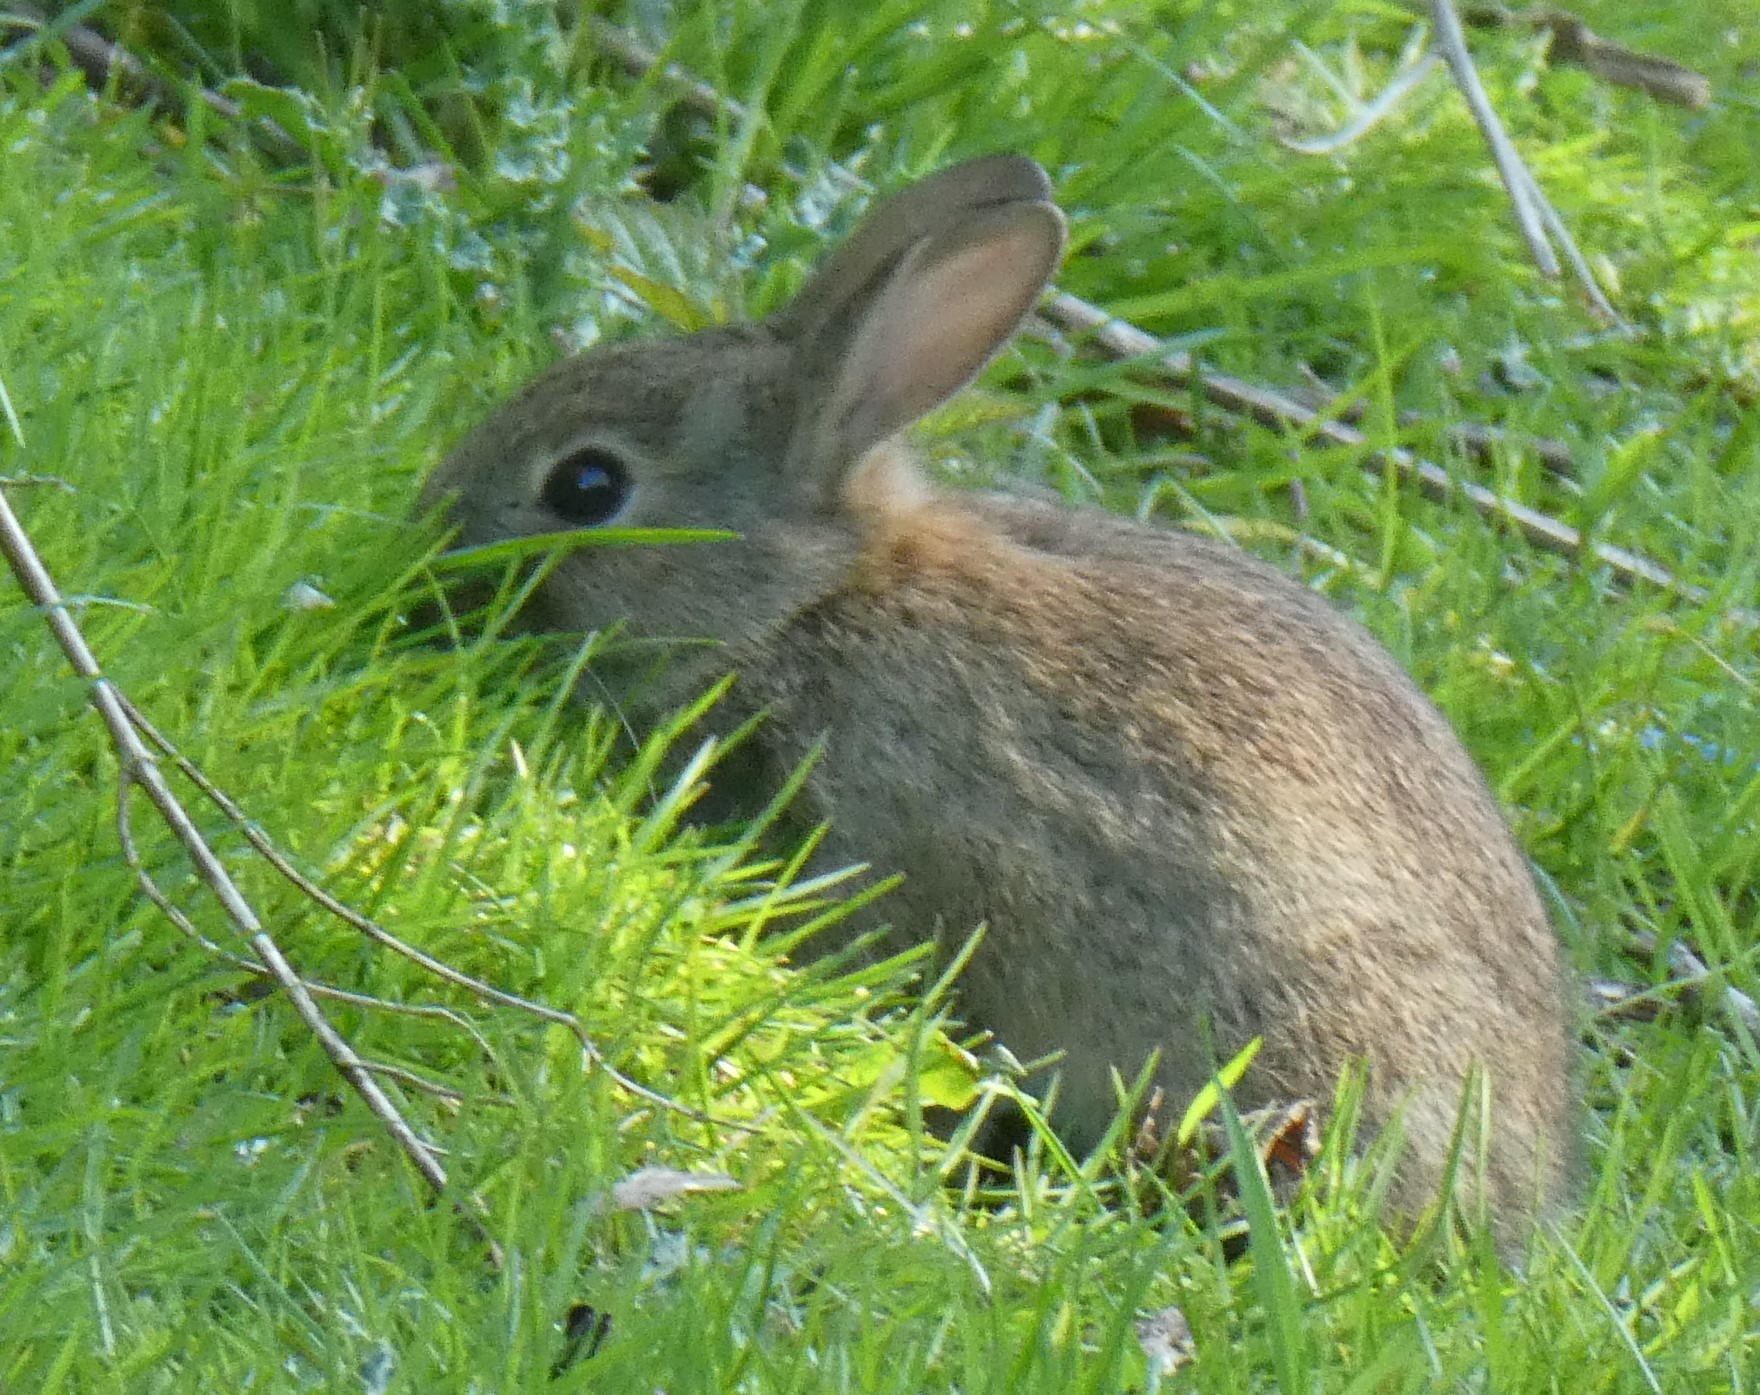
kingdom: Animalia
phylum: Chordata
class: Mammalia
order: Lagomorpha
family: Leporidae
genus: Oryctolagus
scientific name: Oryctolagus cuniculus
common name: European rabbit
